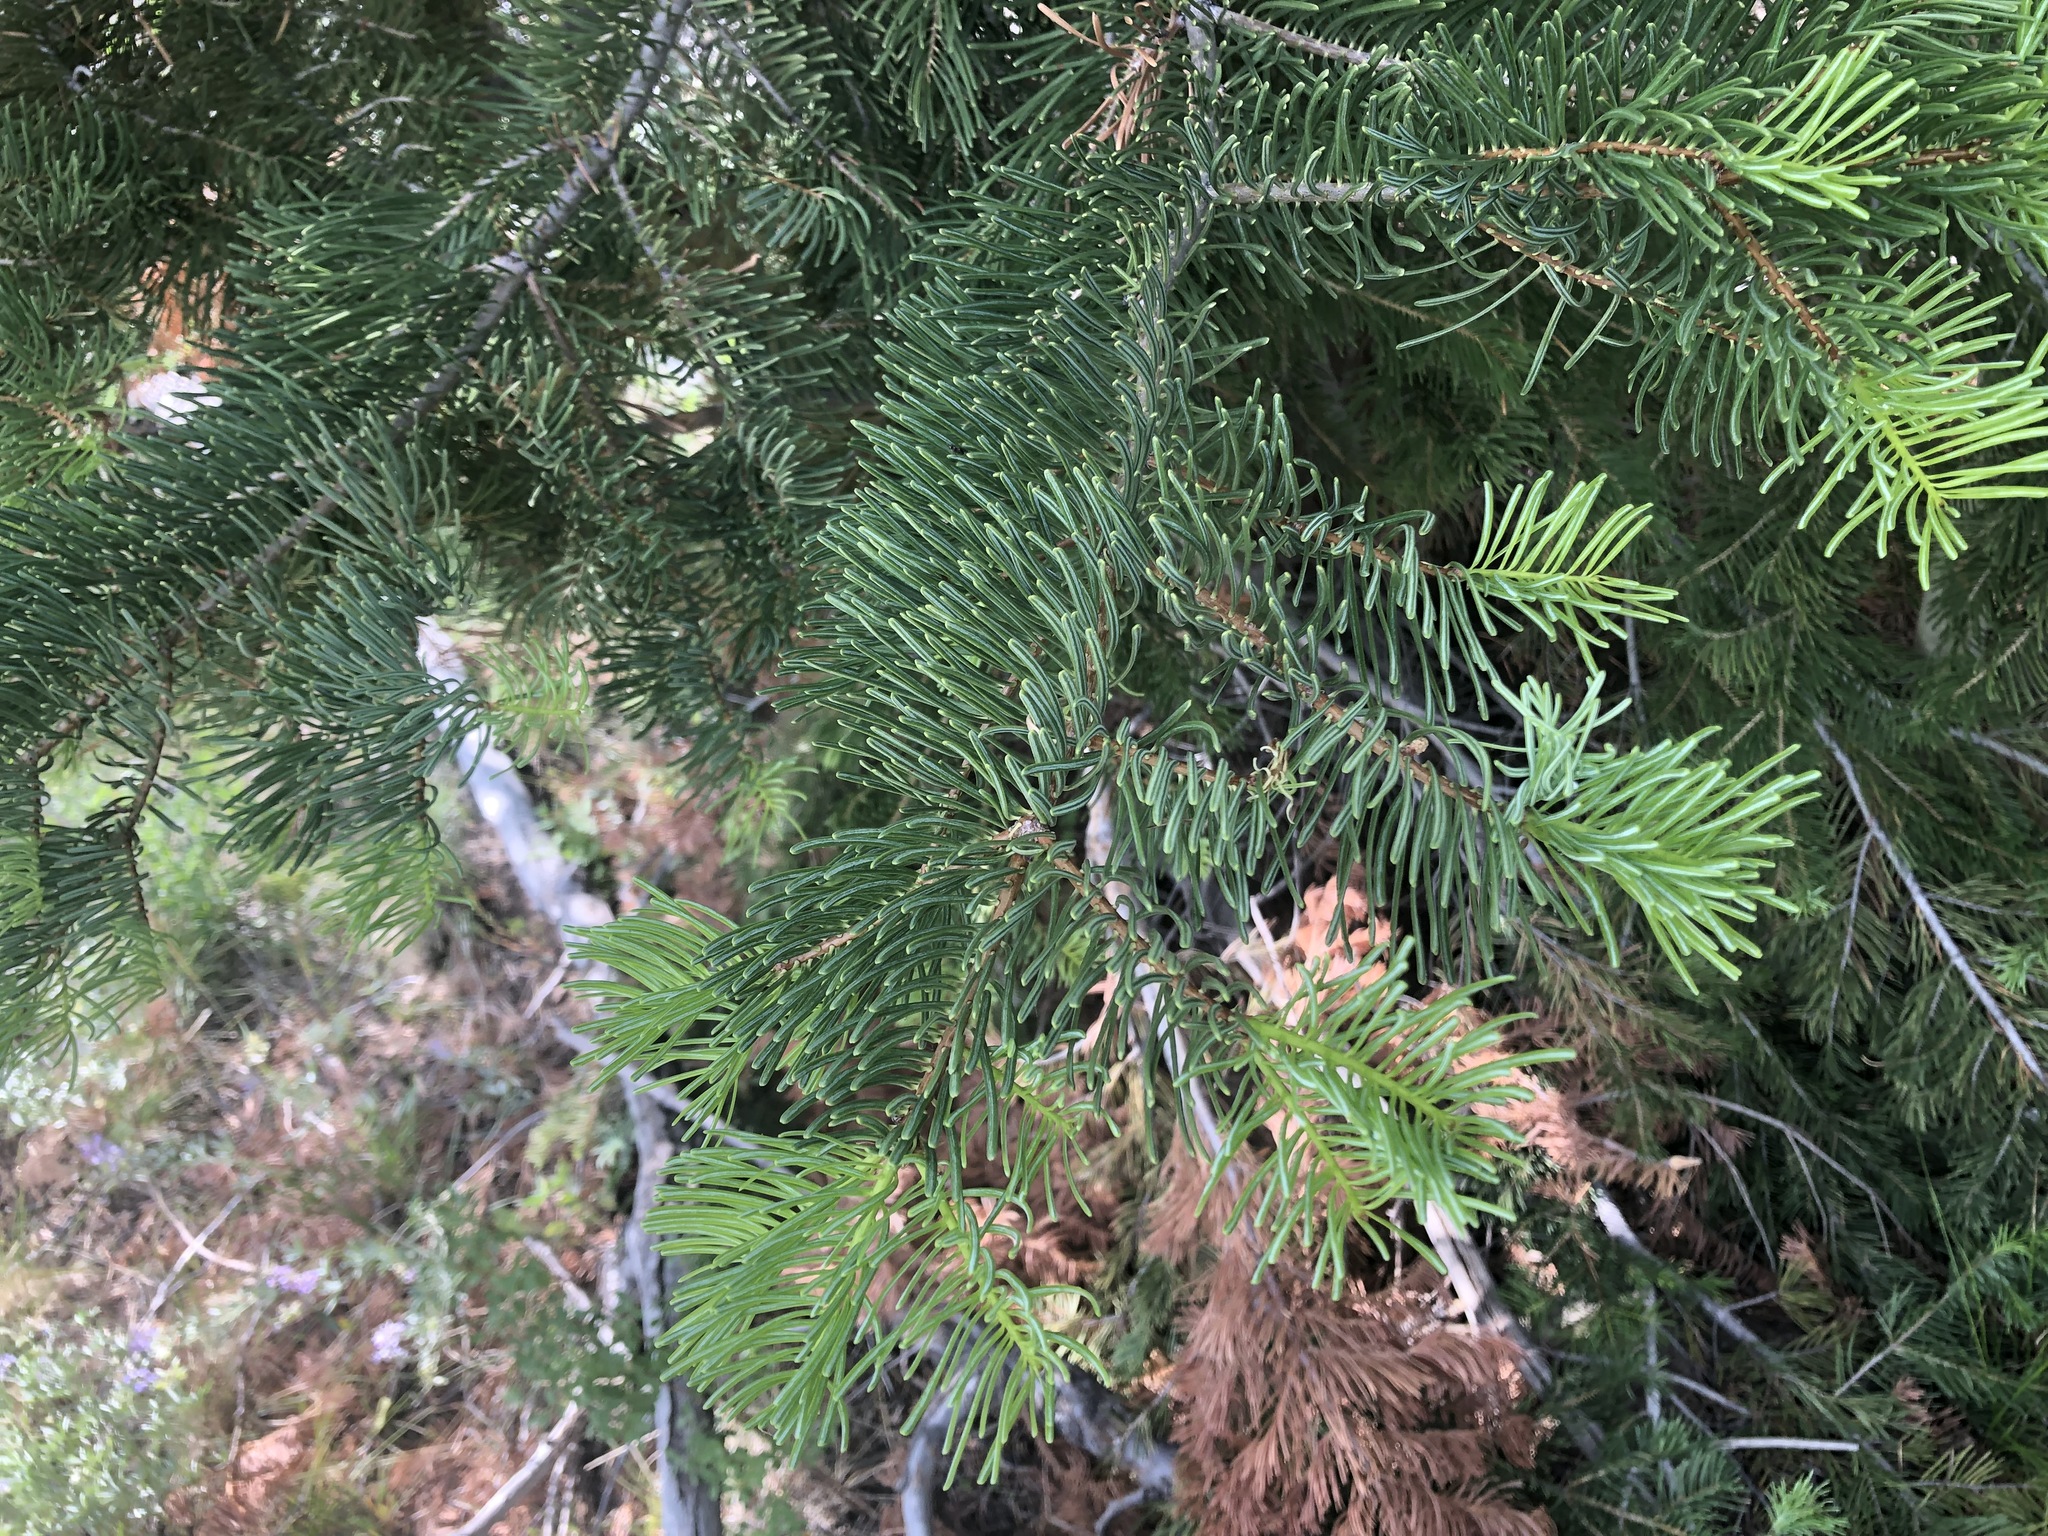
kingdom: Plantae
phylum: Tracheophyta
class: Pinopsida
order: Pinales
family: Pinaceae
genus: Abies
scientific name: Abies concolor
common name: Colorado fir
